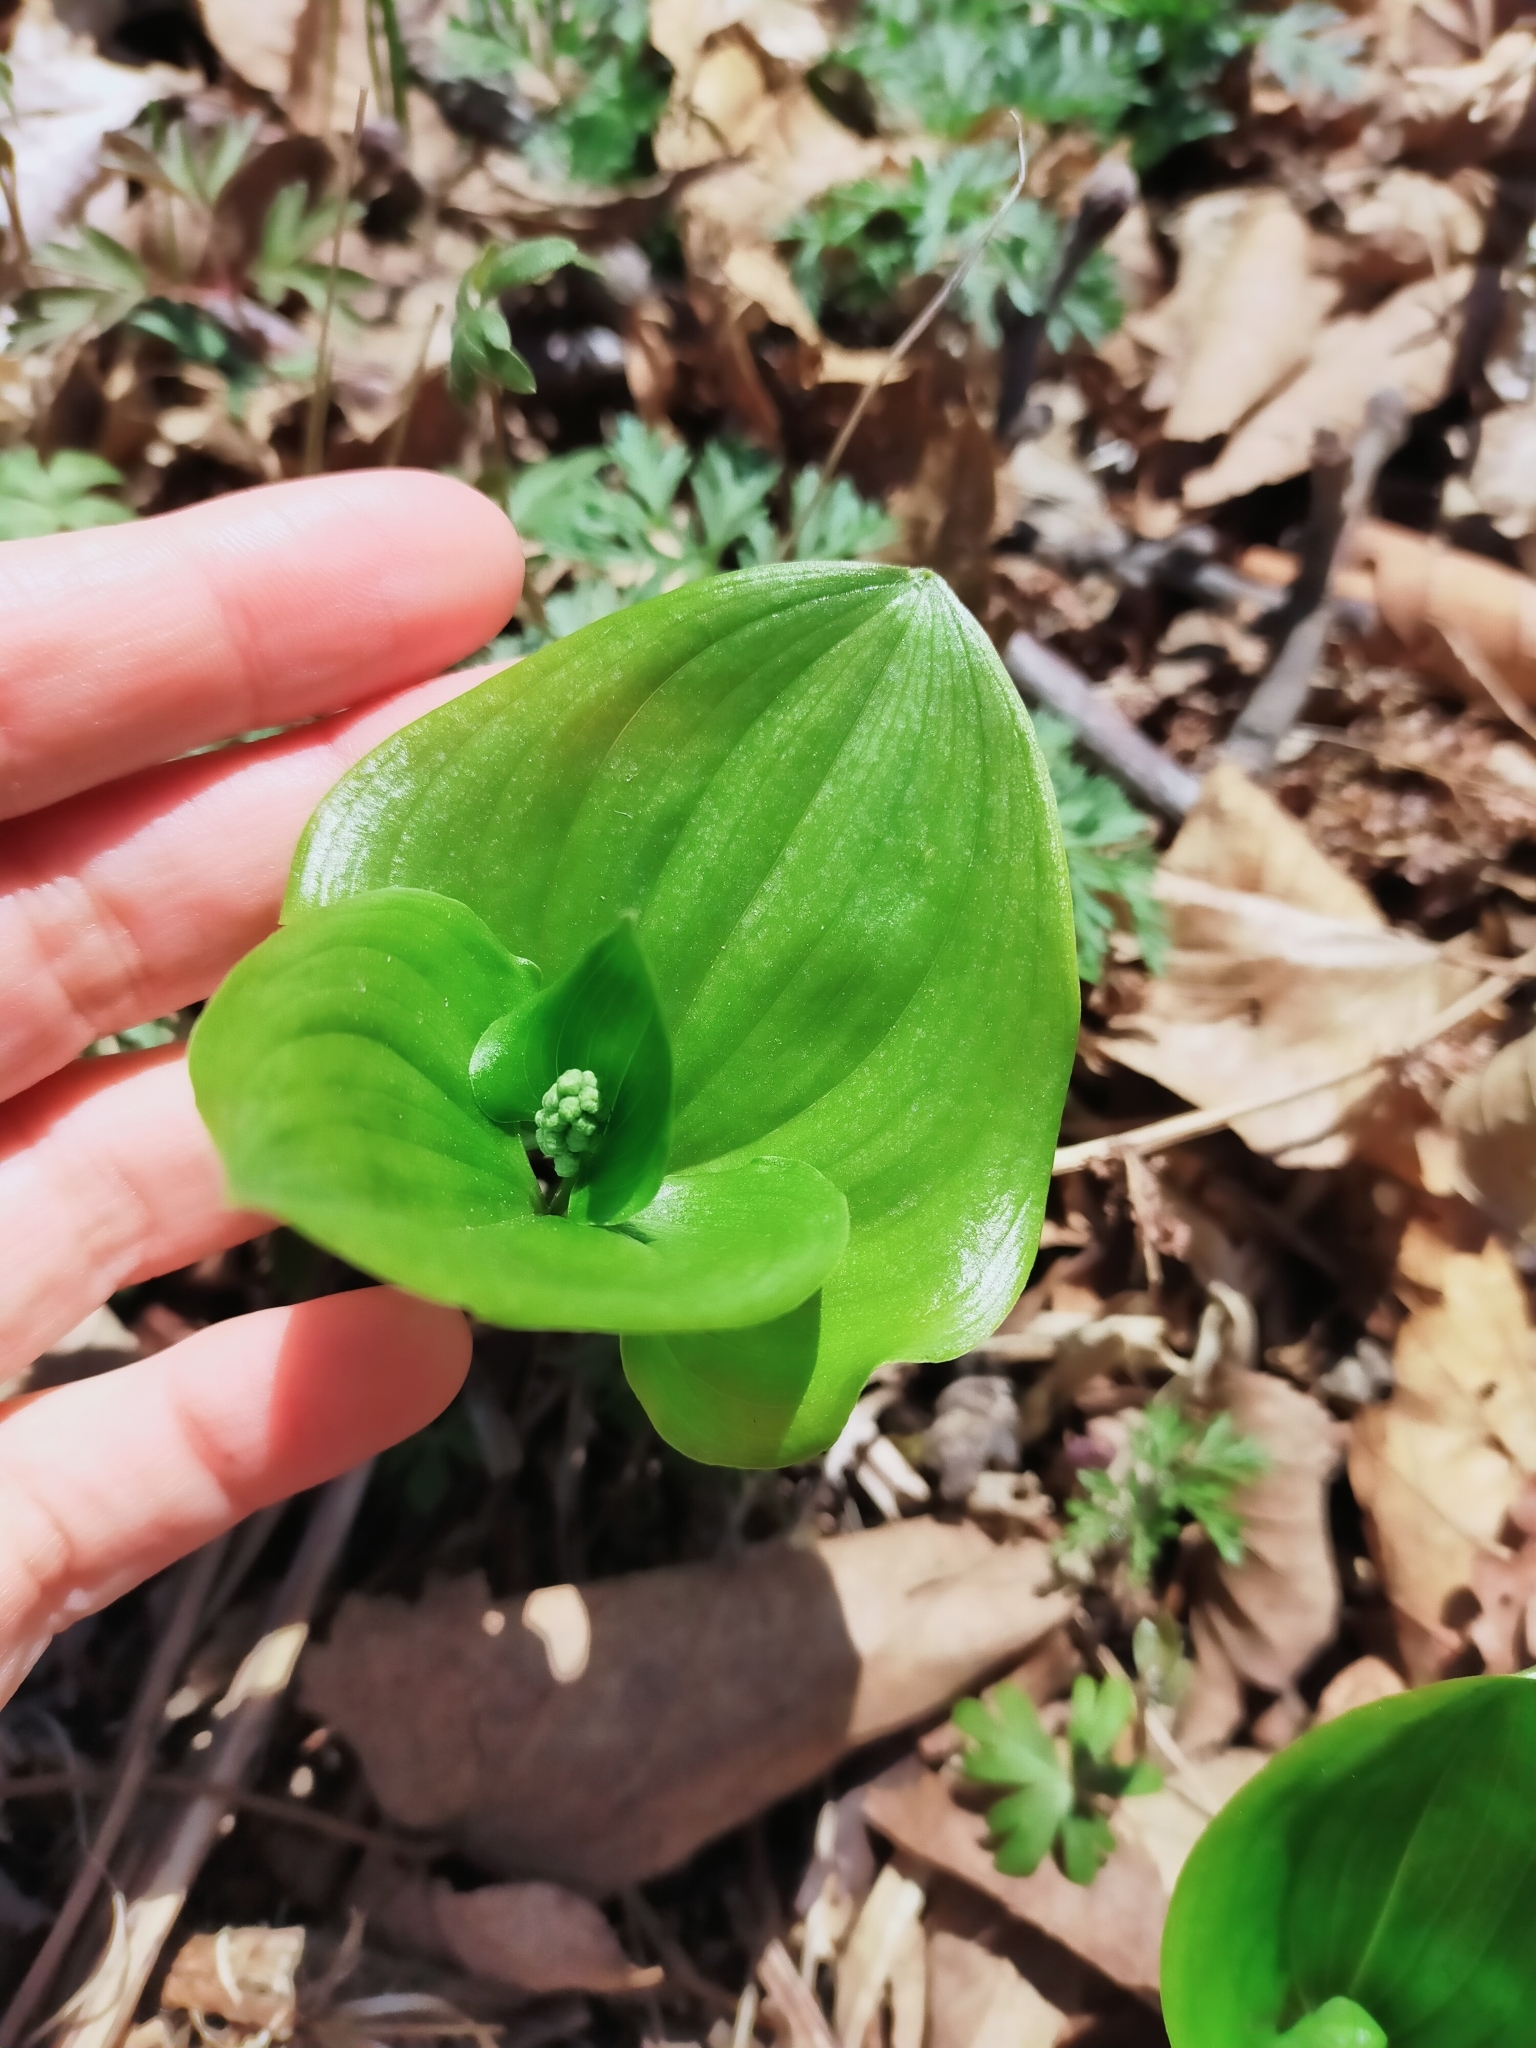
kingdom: Plantae
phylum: Tracheophyta
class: Liliopsida
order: Asparagales
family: Asparagaceae
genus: Maianthemum
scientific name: Maianthemum dilatatum
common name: False lily-of-the-valley
